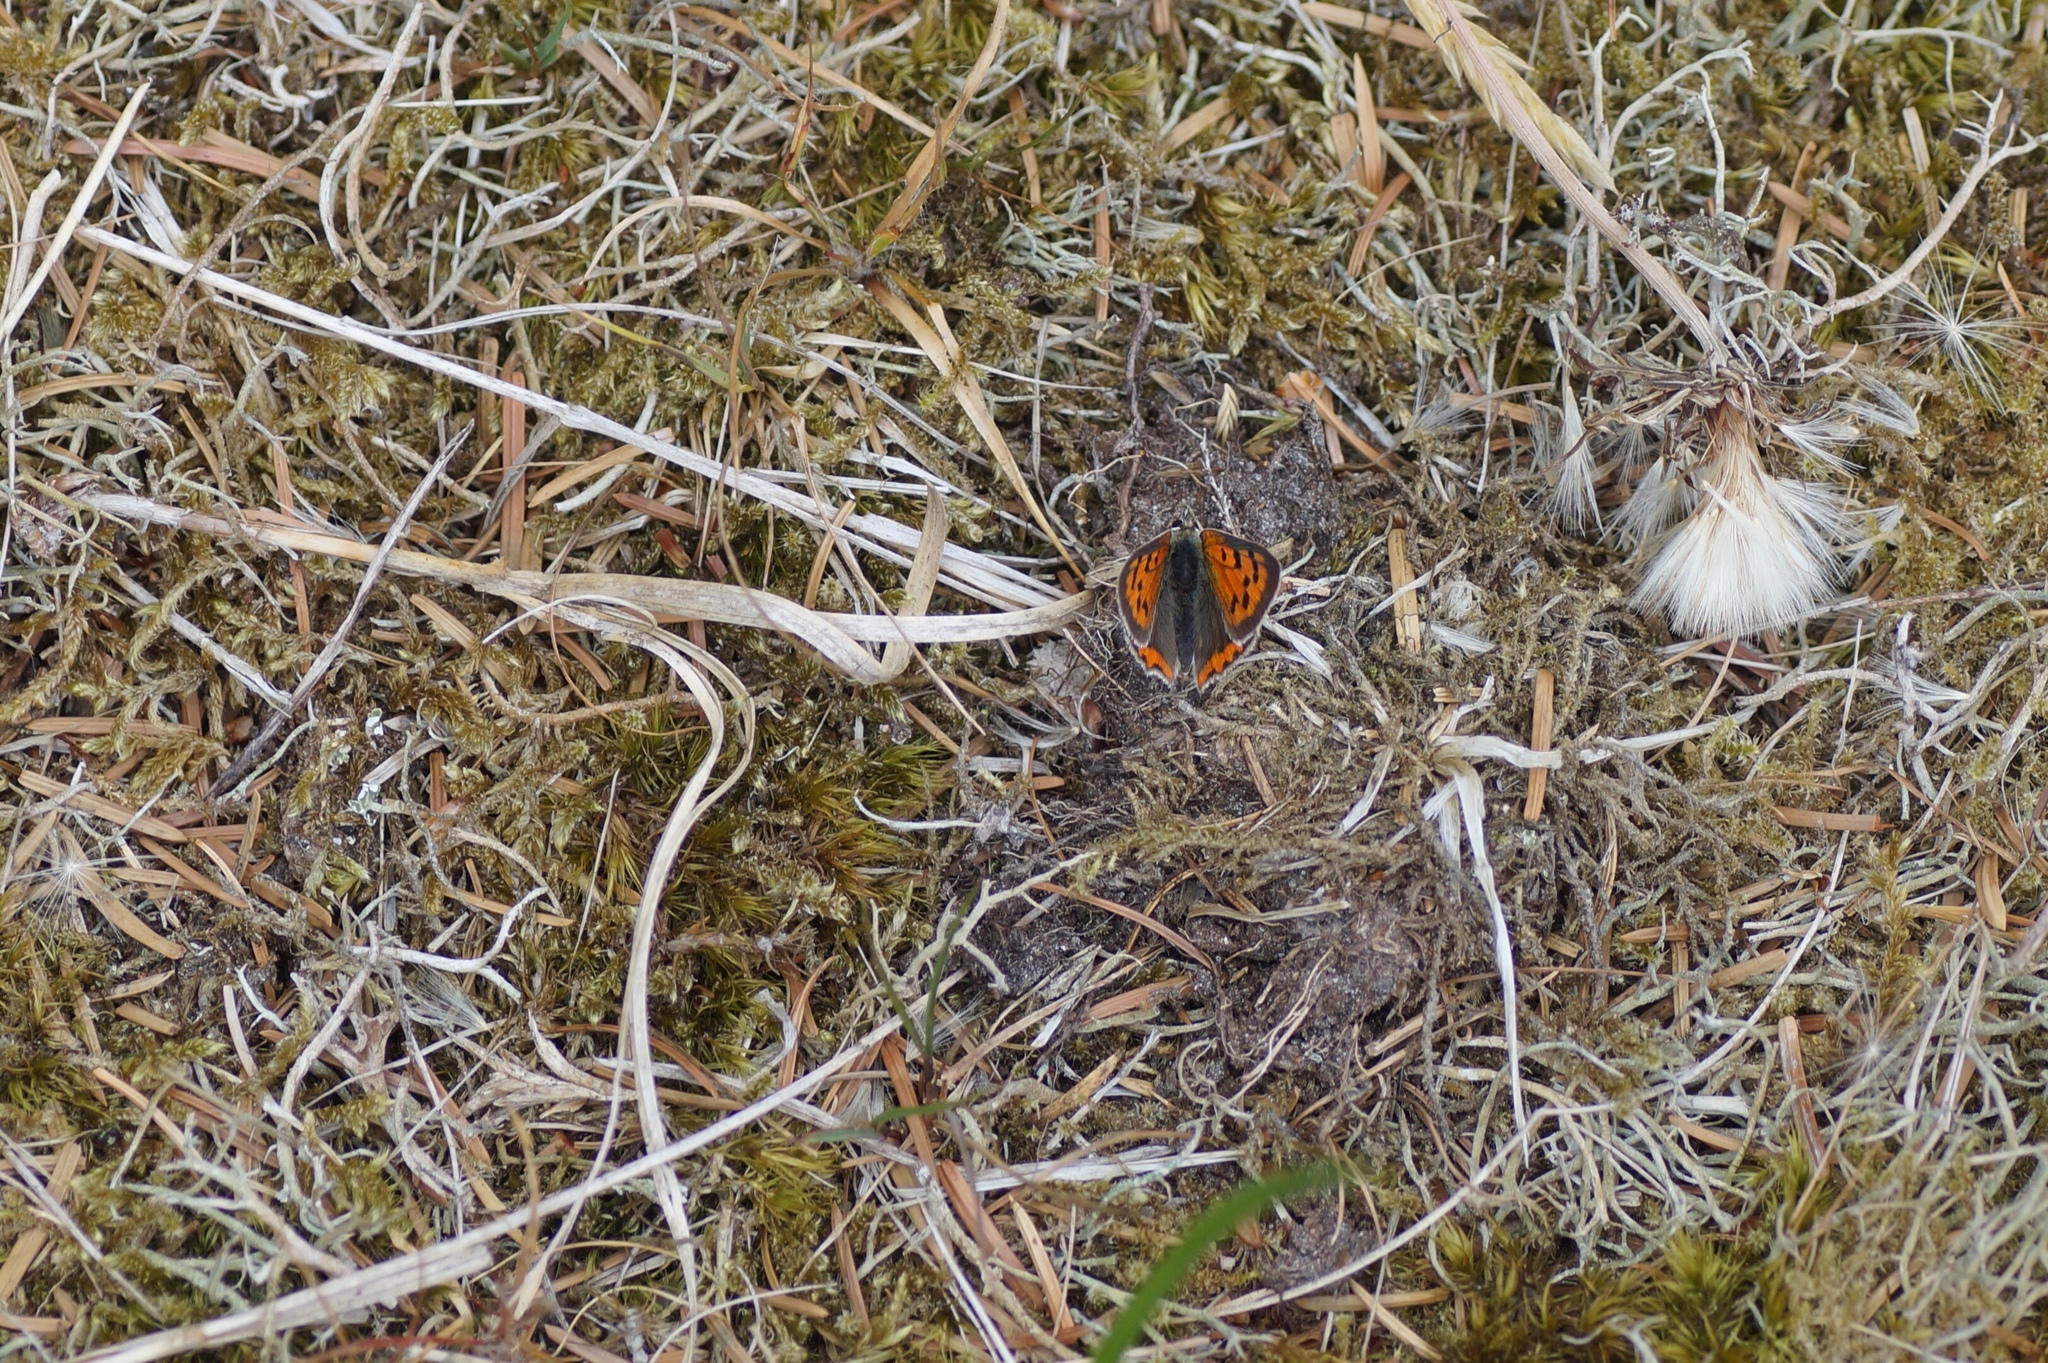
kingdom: Animalia
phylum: Arthropoda
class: Insecta
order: Lepidoptera
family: Lycaenidae
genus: Lycaena
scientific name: Lycaena phlaeas
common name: Small copper
